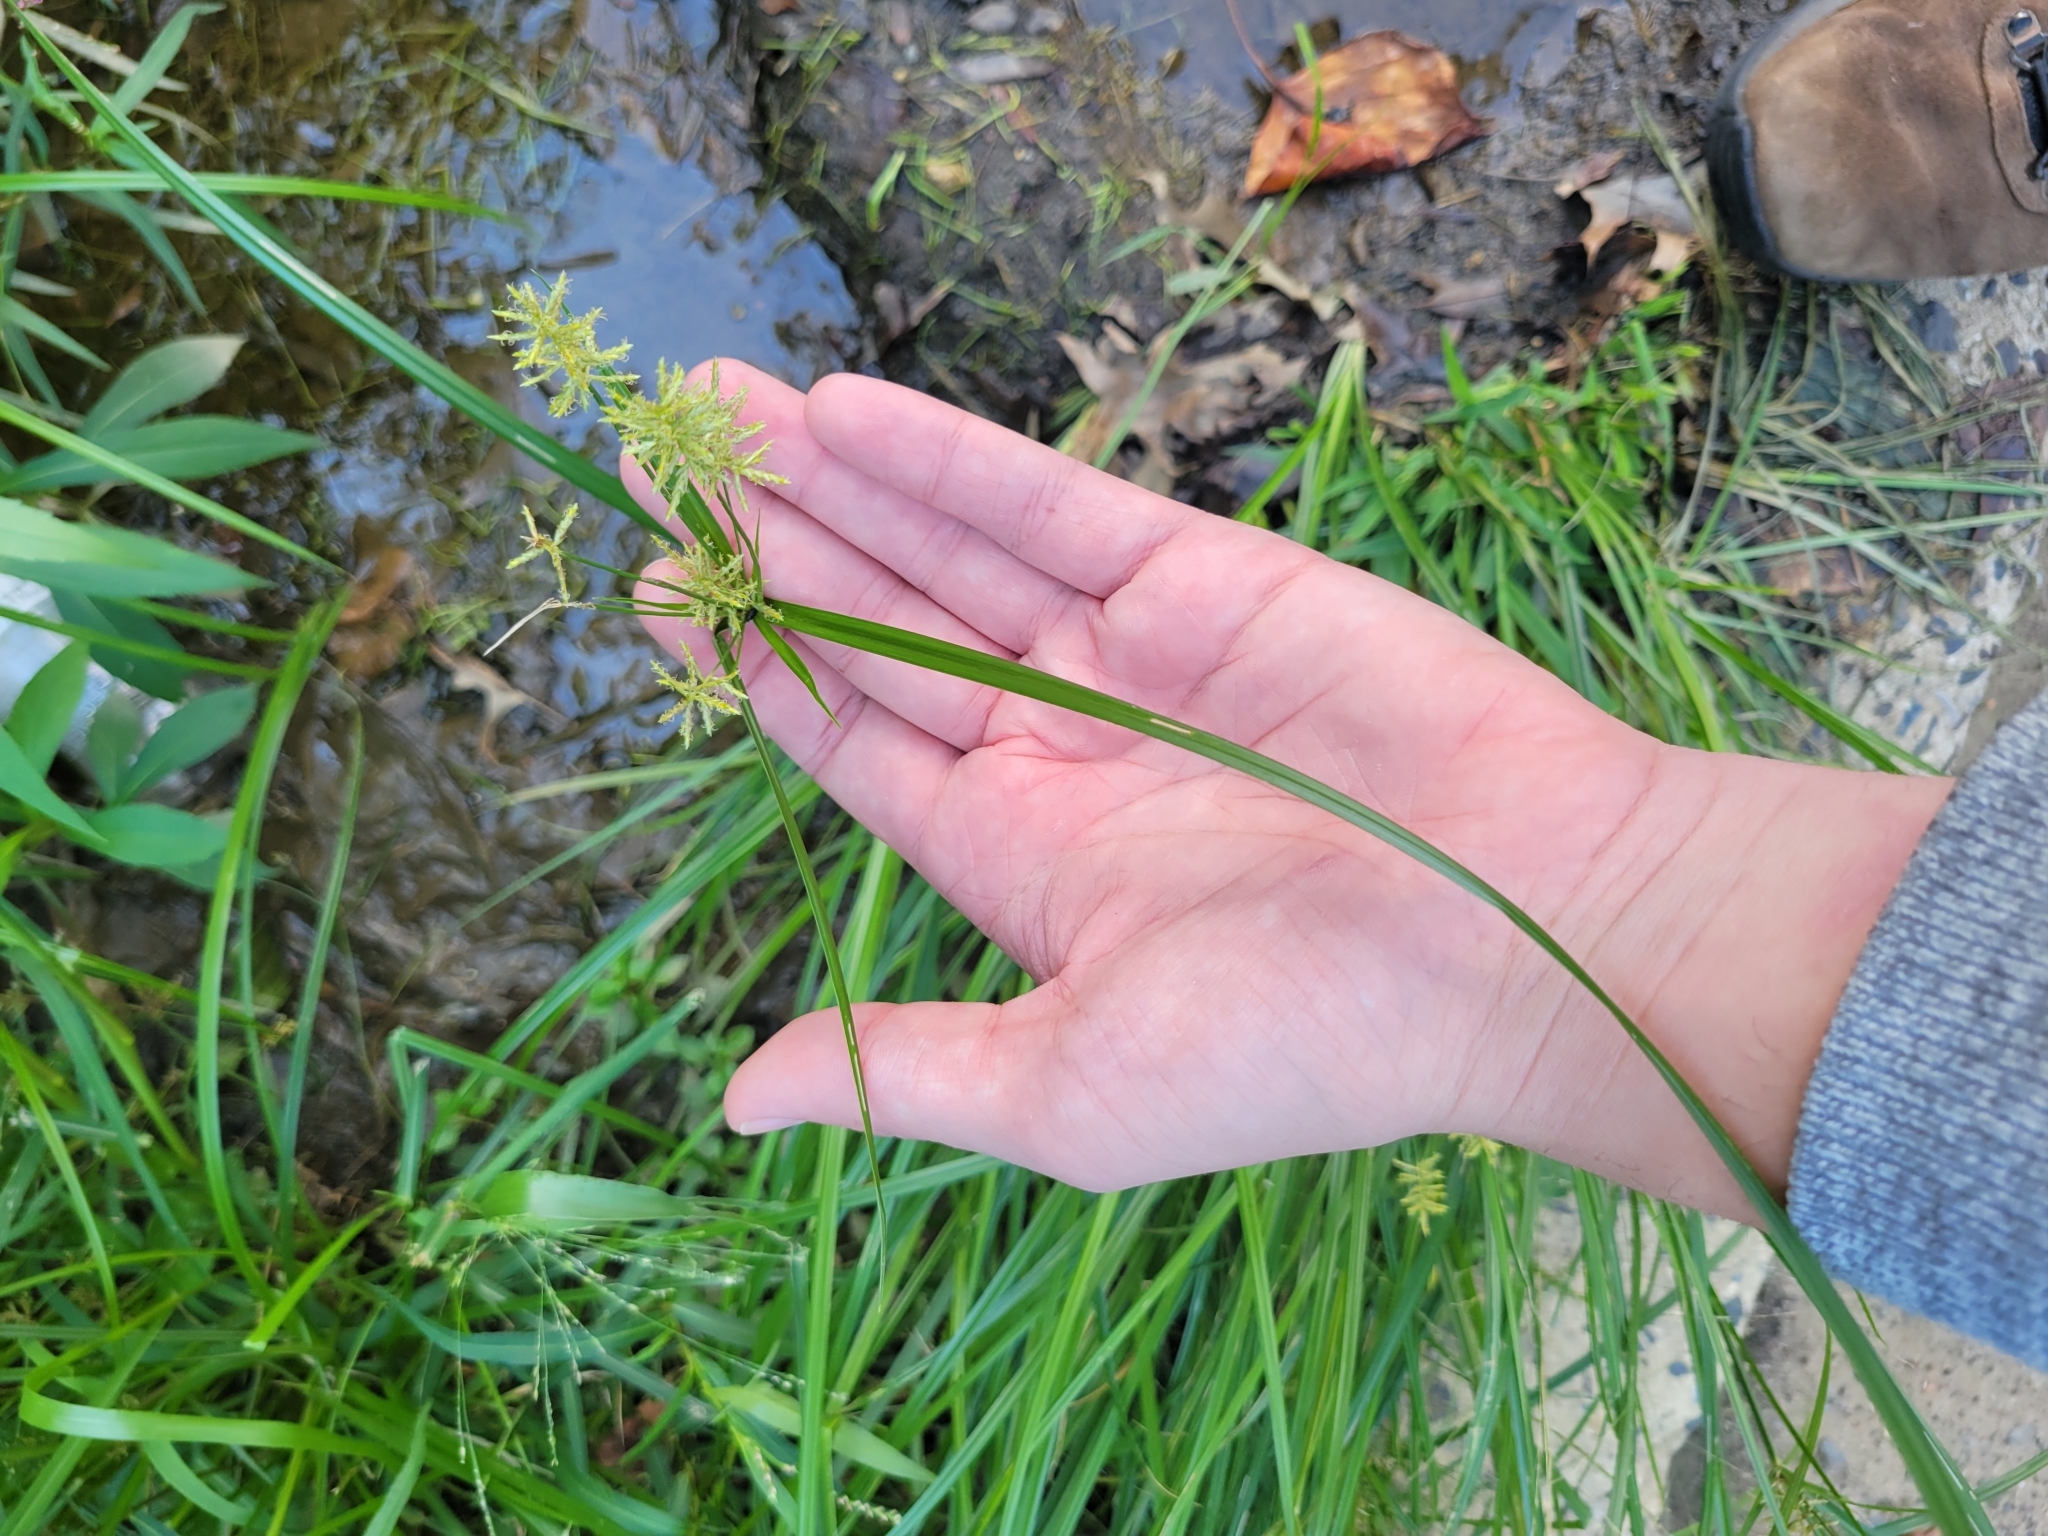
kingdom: Plantae
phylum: Tracheophyta
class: Liliopsida
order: Poales
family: Cyperaceae
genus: Cyperus
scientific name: Cyperus esculentus
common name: Yellow nutsedge
